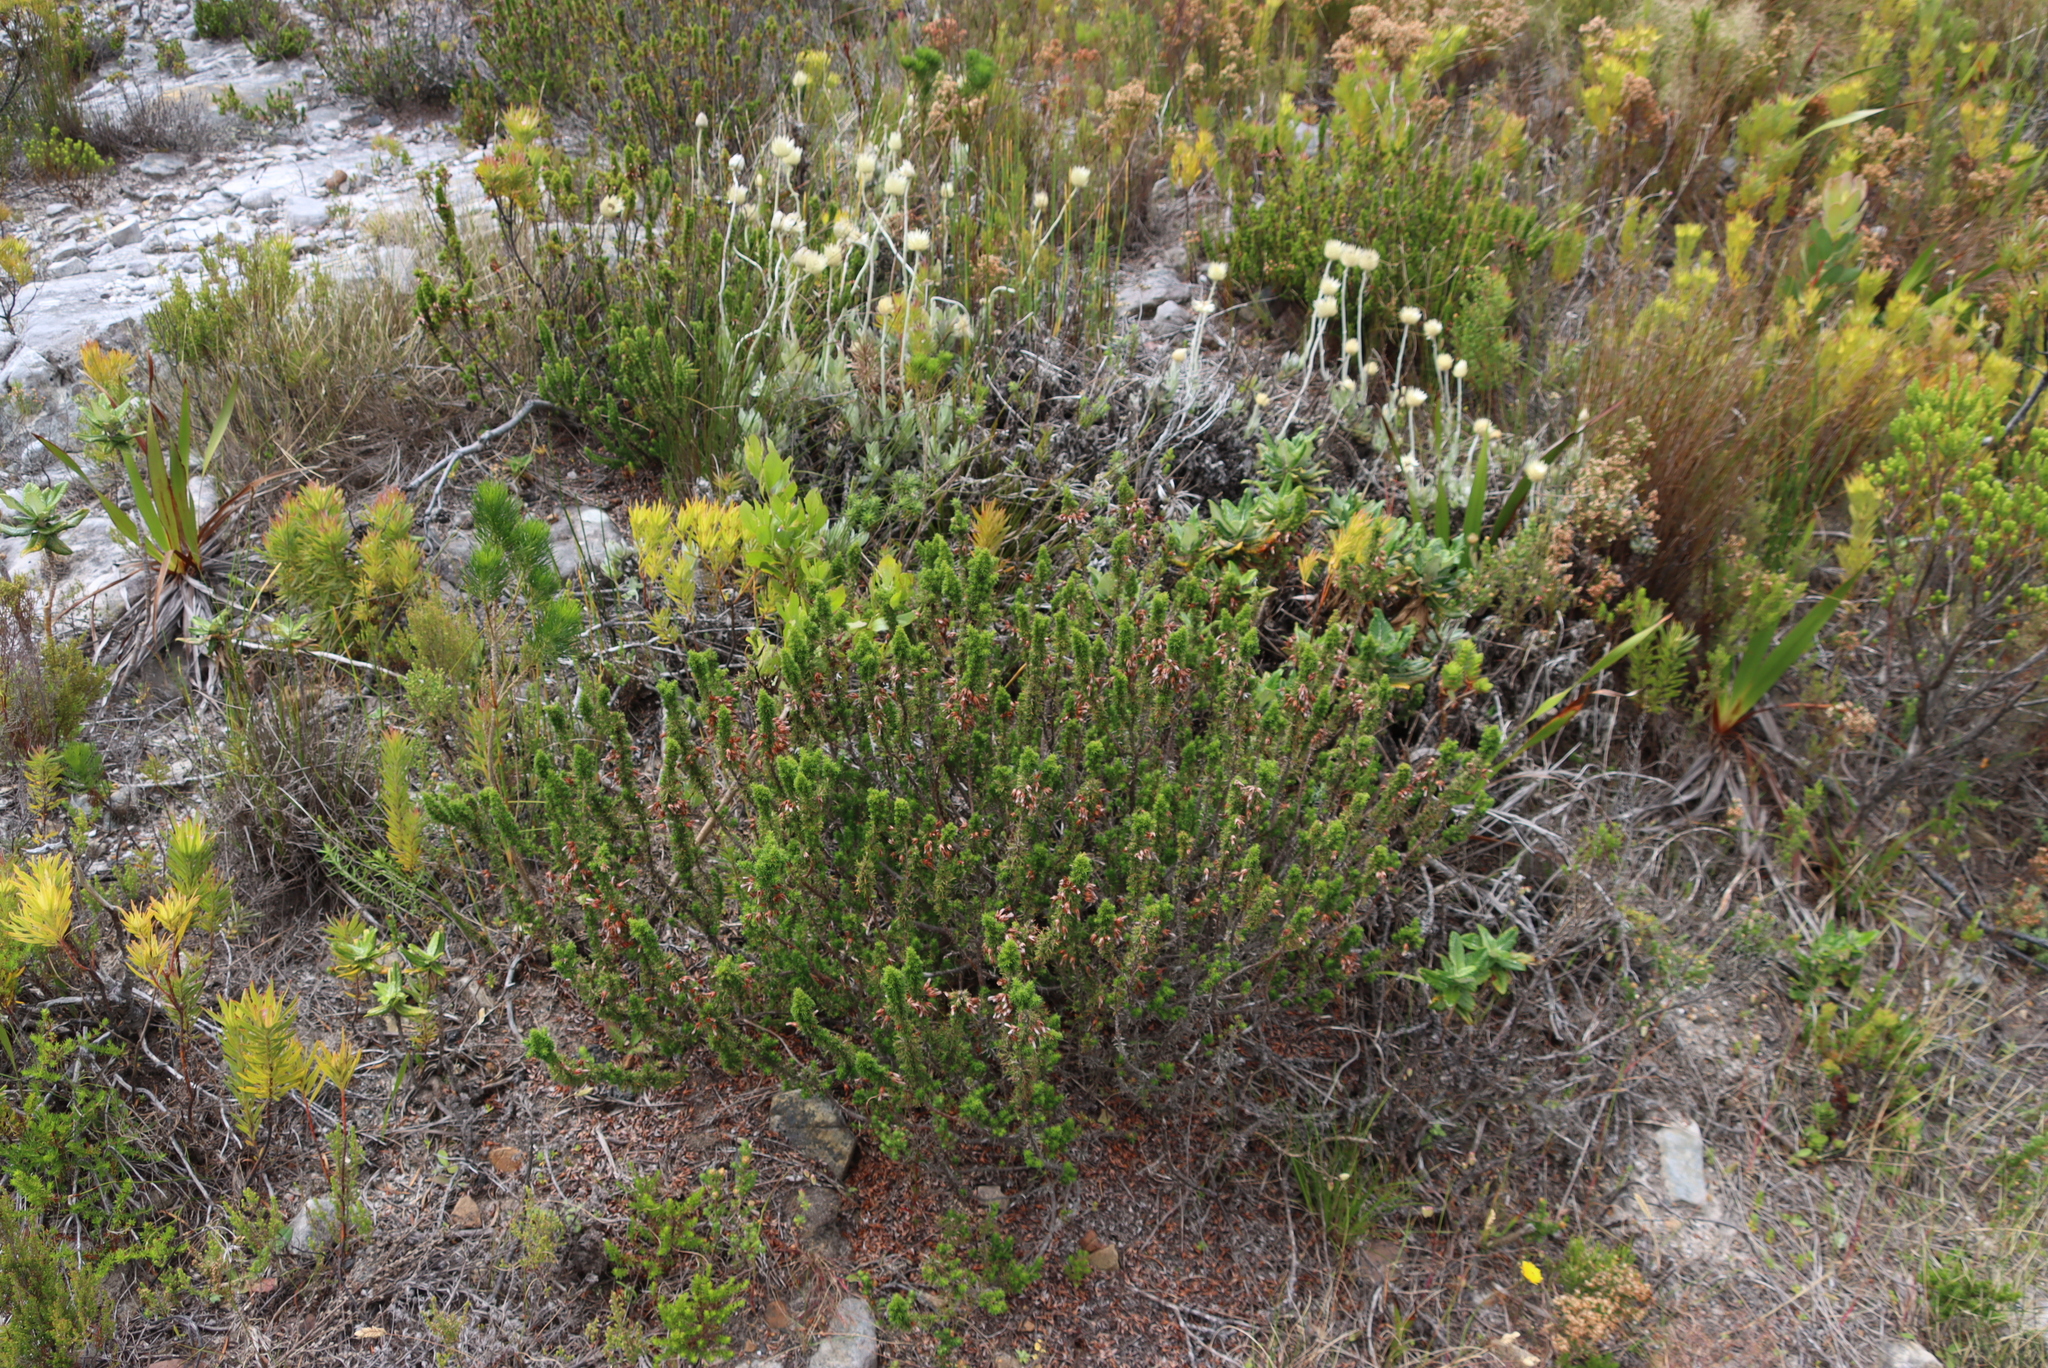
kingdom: Plantae
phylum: Tracheophyta
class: Magnoliopsida
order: Ericales
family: Ericaceae
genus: Erica
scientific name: Erica coccinea
